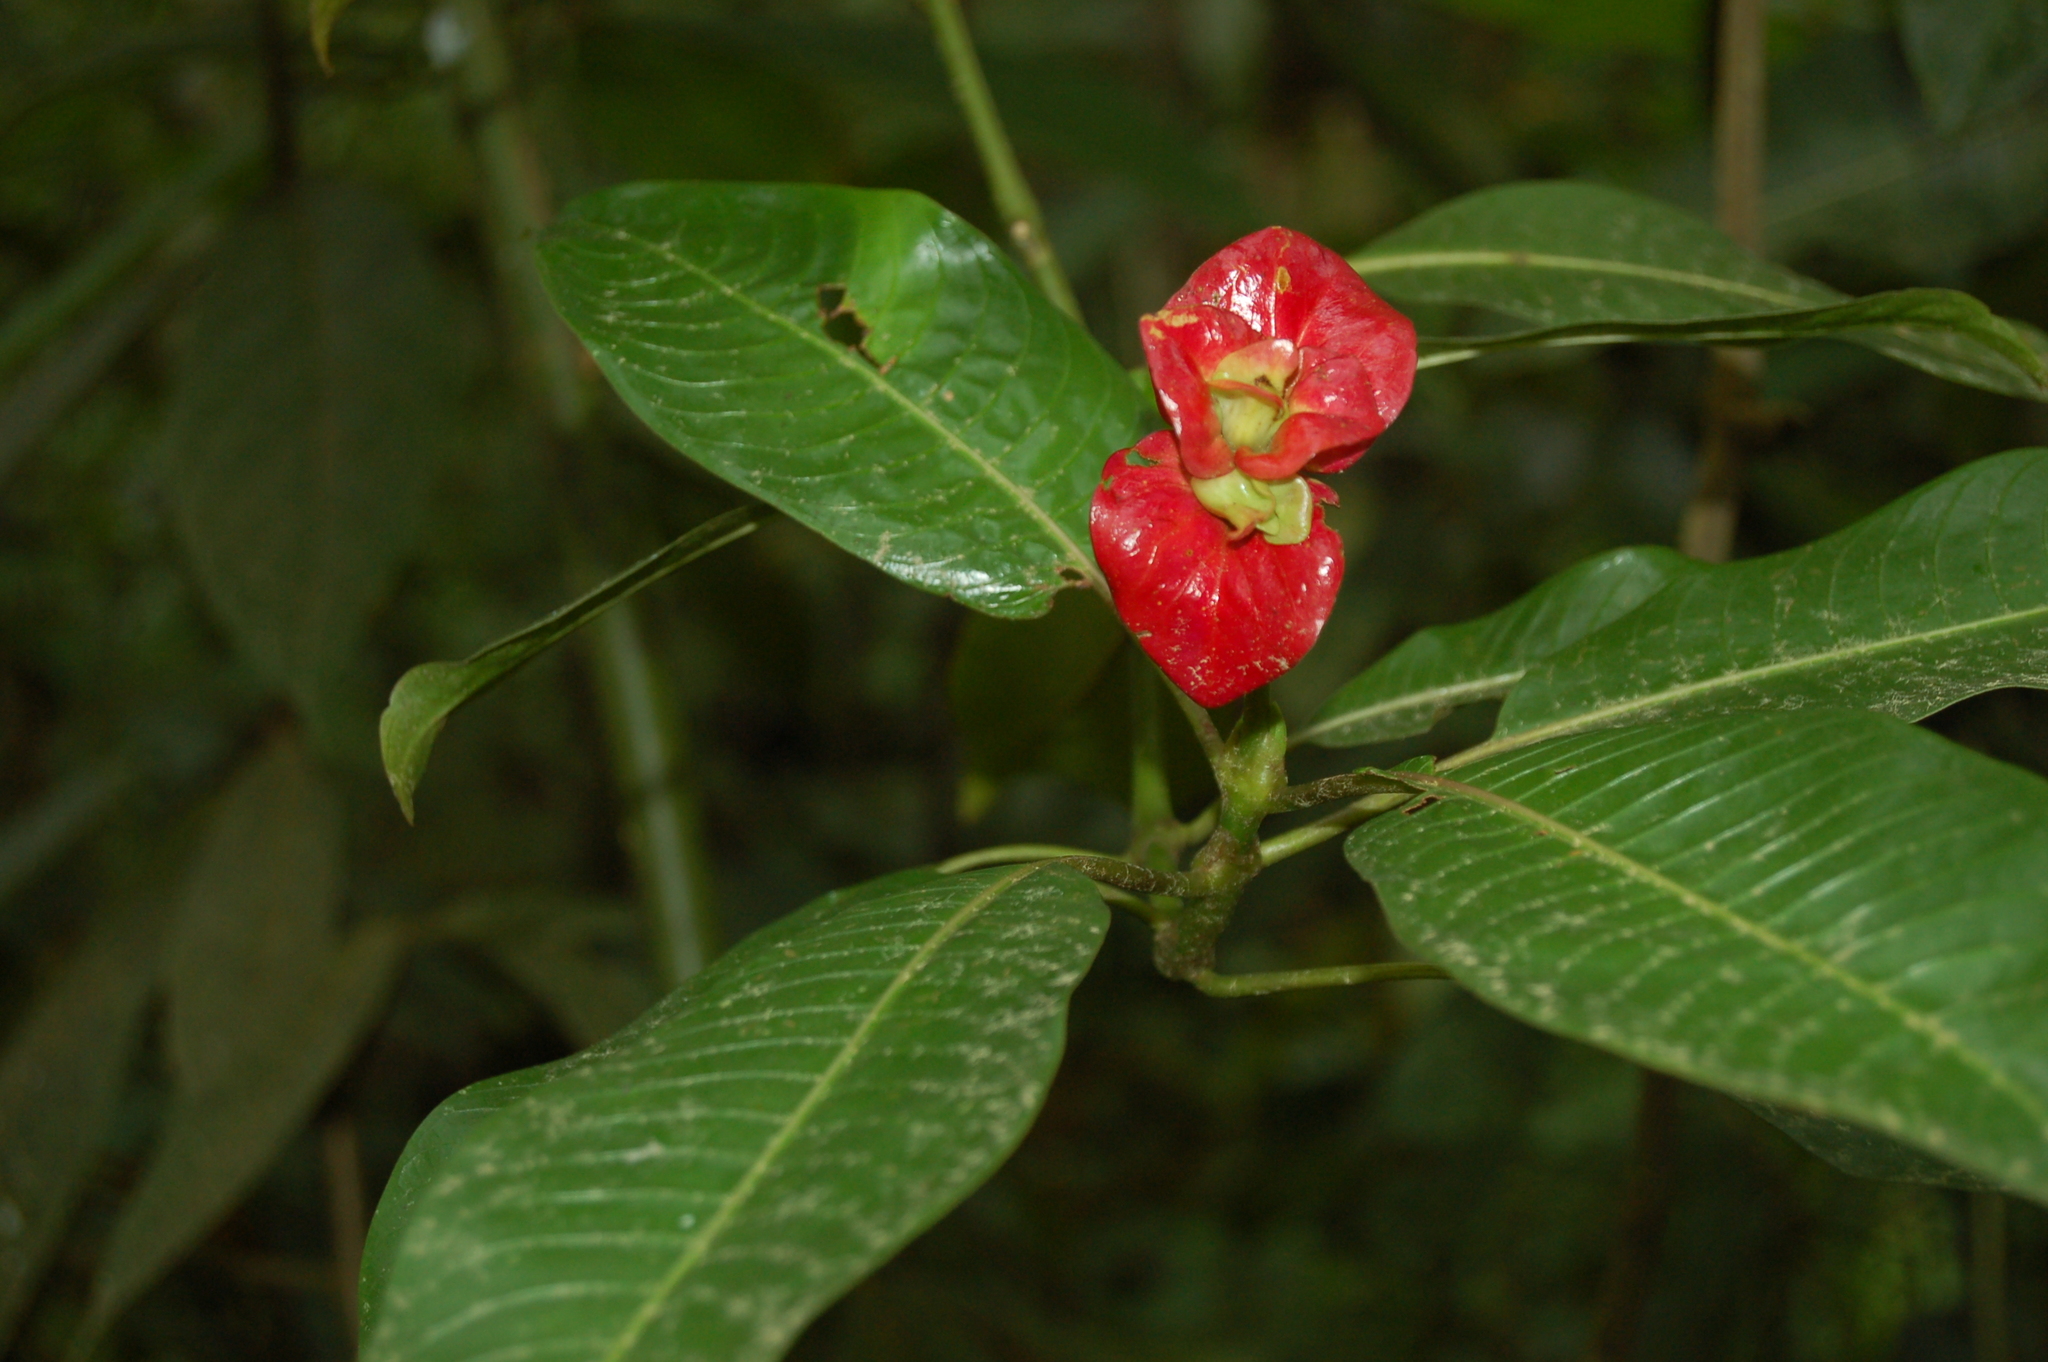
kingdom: Plantae
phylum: Tracheophyta
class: Magnoliopsida
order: Gentianales
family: Rubiaceae
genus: Palicourea
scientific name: Palicourea elata
